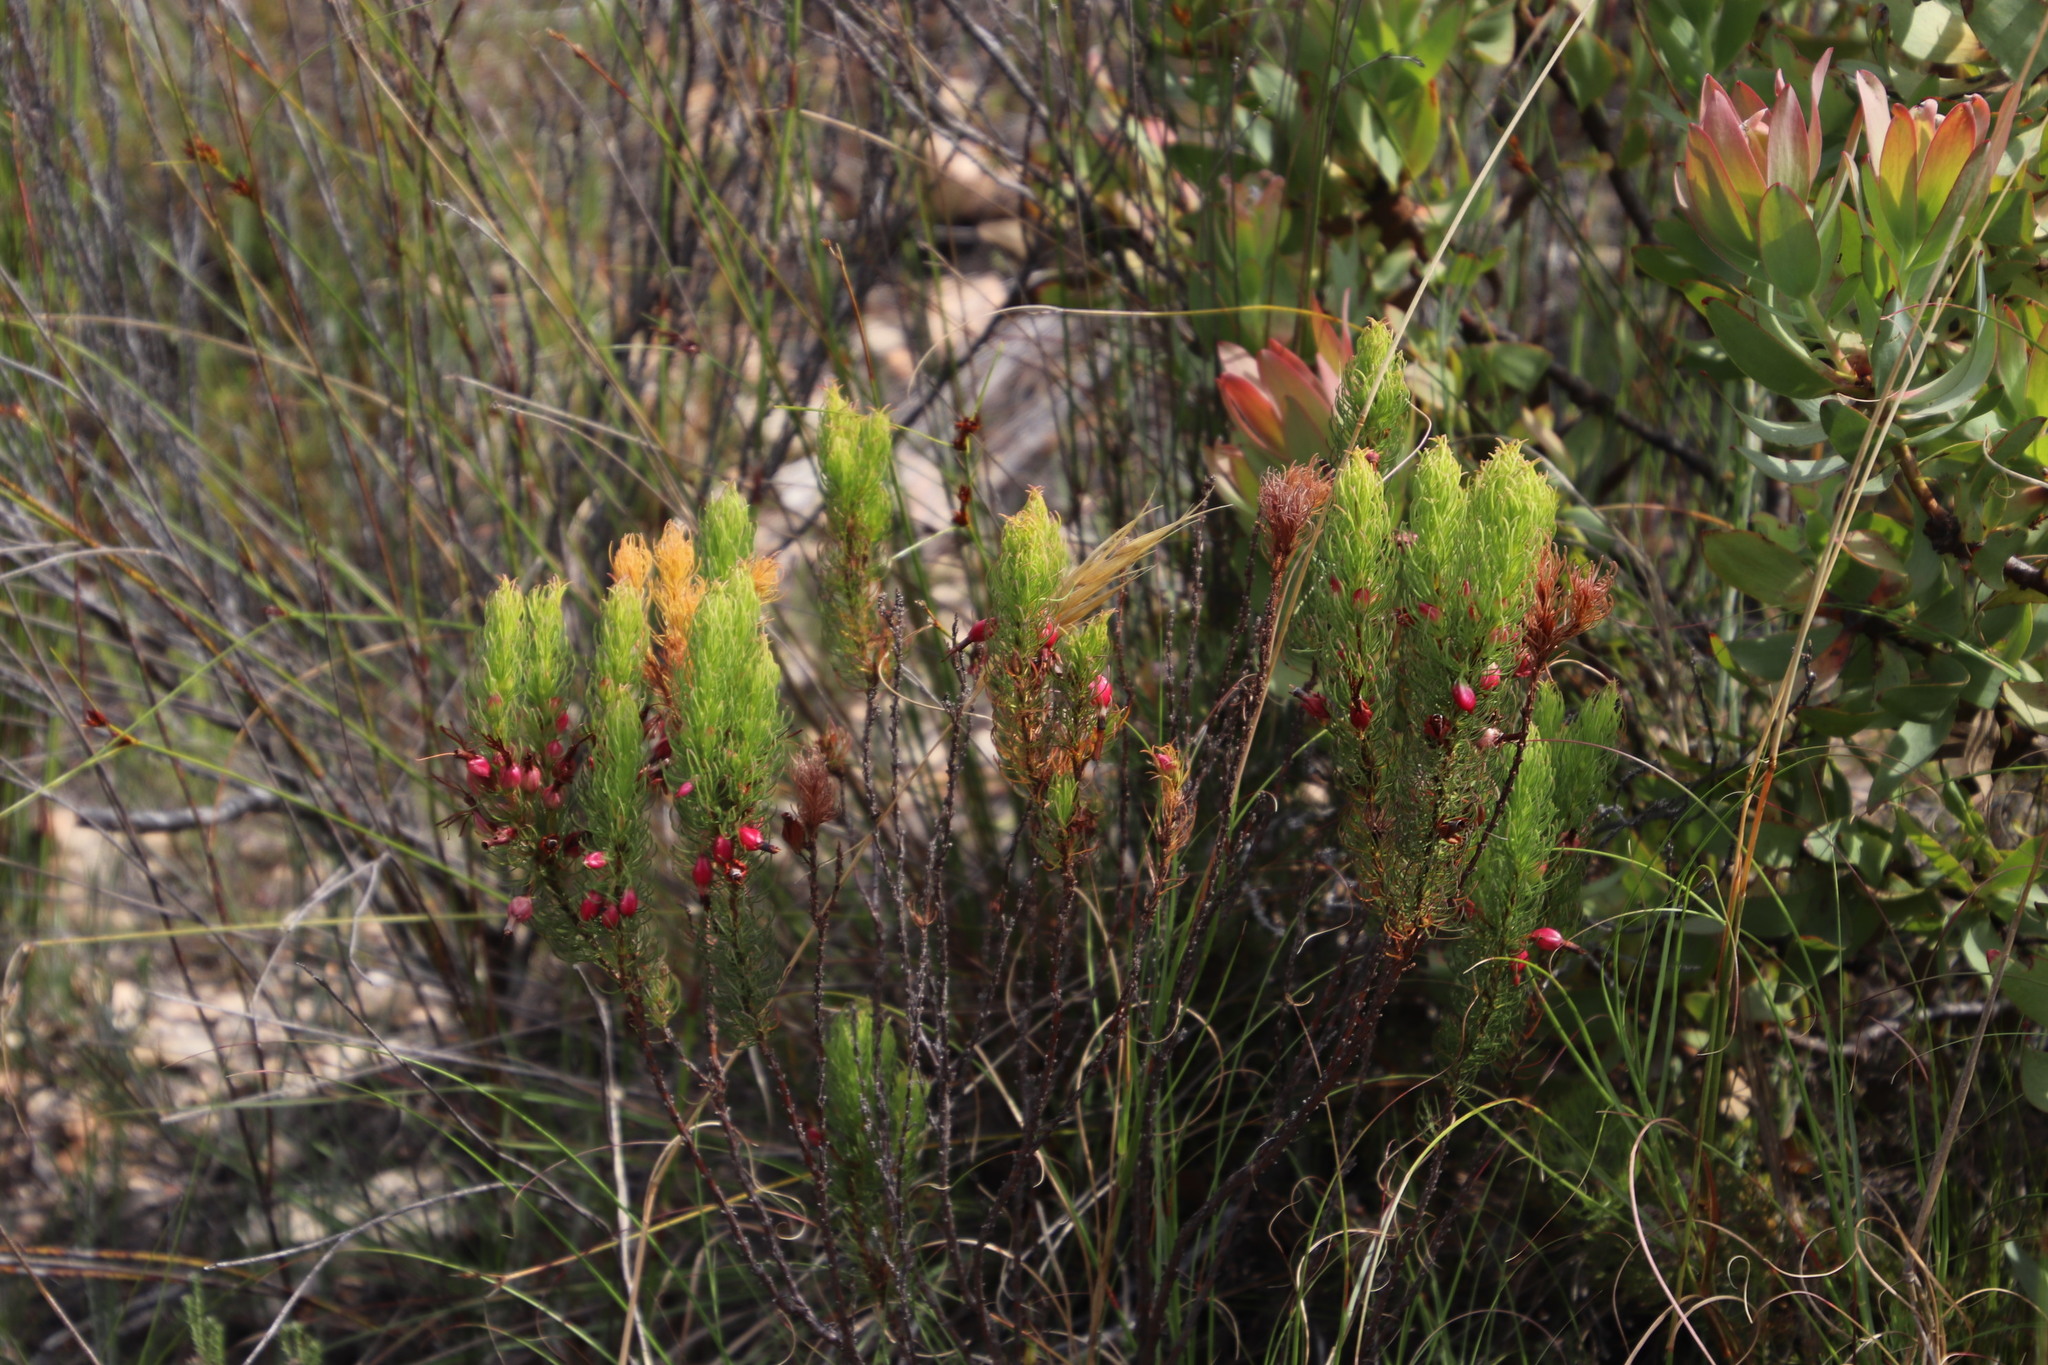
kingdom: Plantae
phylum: Tracheophyta
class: Magnoliopsida
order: Ericales
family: Ericaceae
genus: Erica
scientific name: Erica plukenetii
